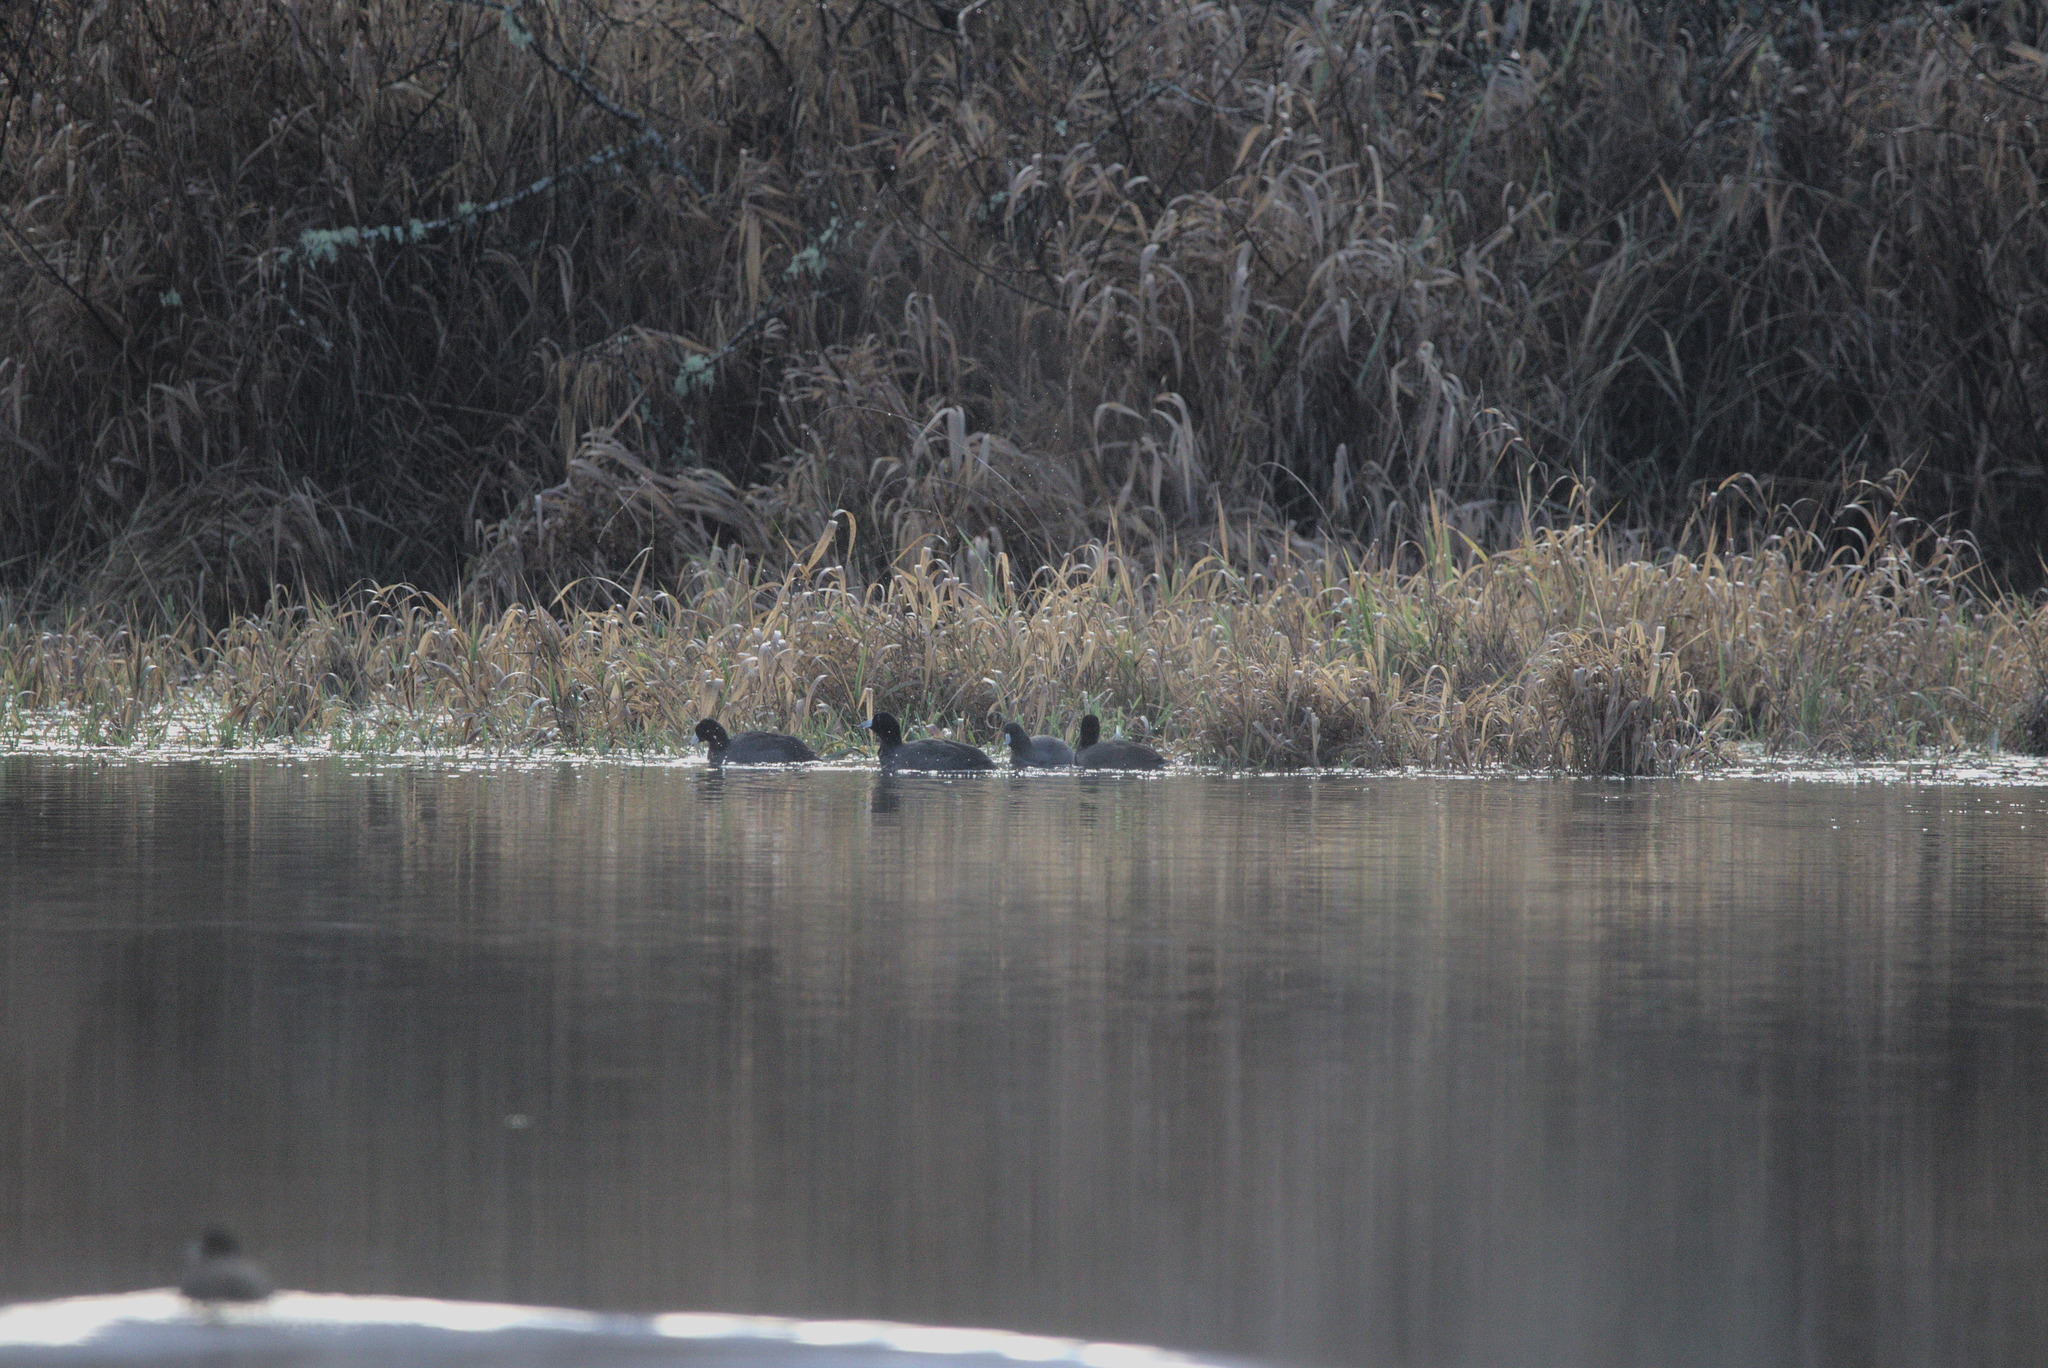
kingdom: Animalia
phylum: Chordata
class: Aves
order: Gruiformes
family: Rallidae
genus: Fulica
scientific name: Fulica americana
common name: American coot
